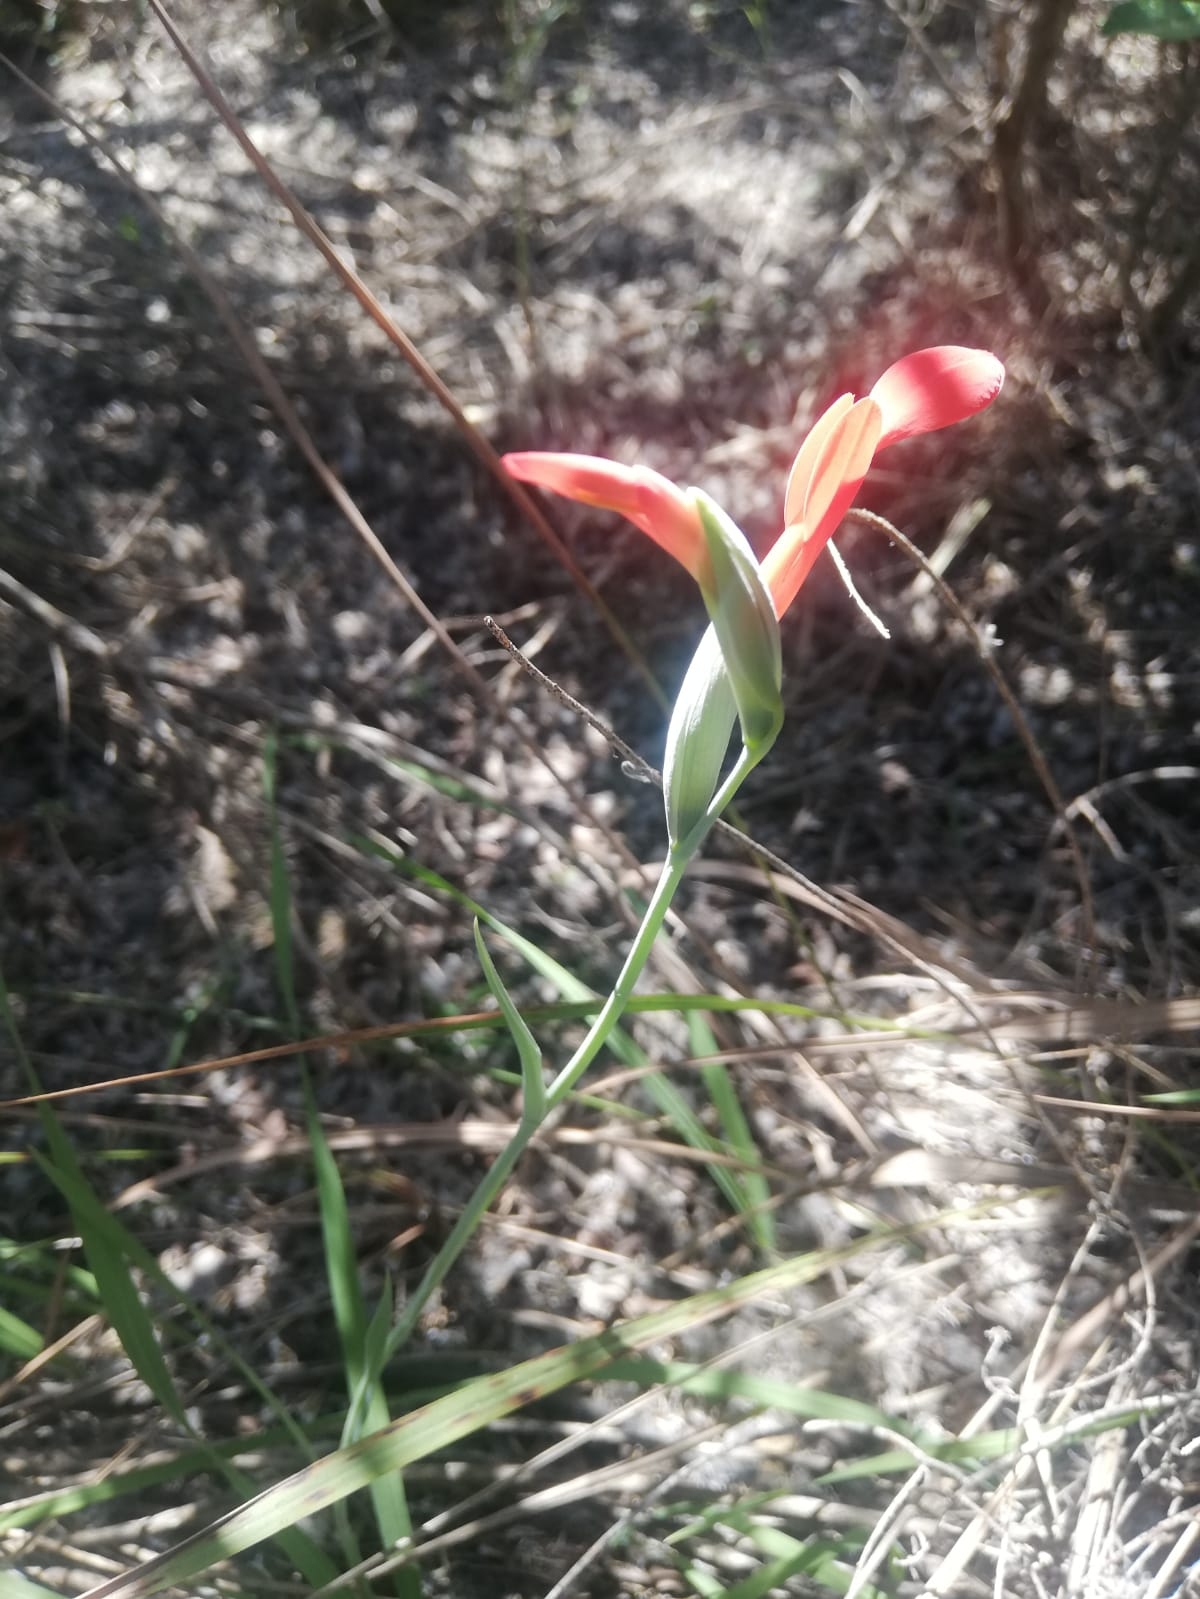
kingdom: Plantae
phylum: Tracheophyta
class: Liliopsida
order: Asparagales
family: Iridaceae
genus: Gladiolus
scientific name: Gladiolus cunonius
